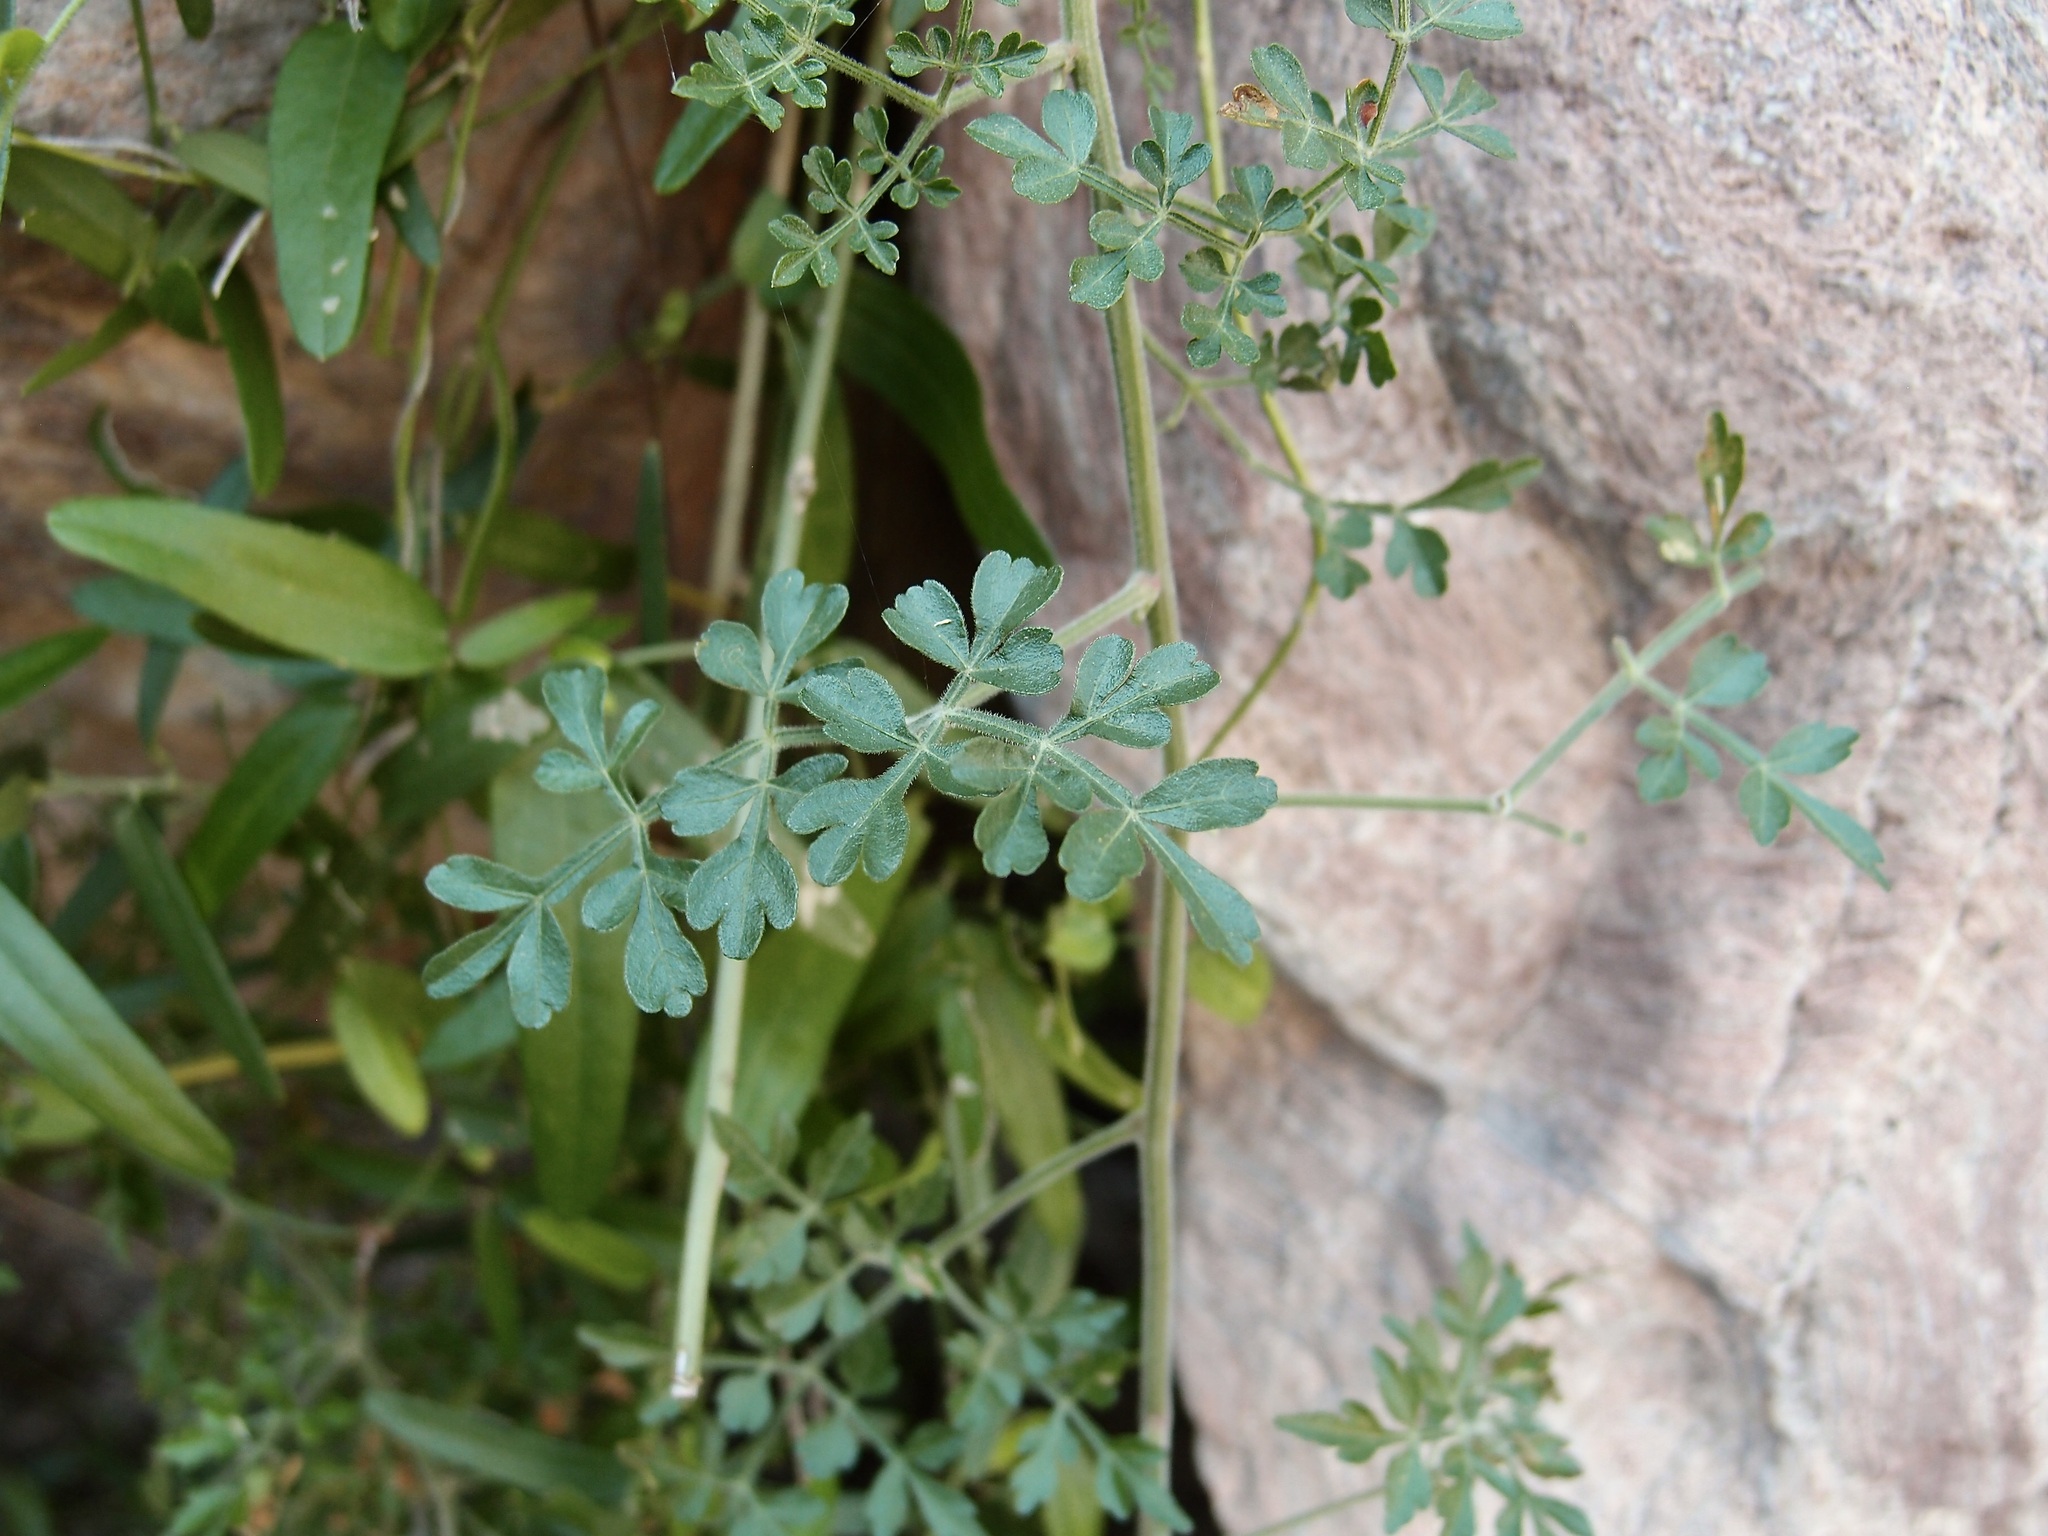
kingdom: Plantae
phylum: Tracheophyta
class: Magnoliopsida
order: Sapindales
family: Sapindaceae
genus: Serjania
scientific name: Serjania palmeri
